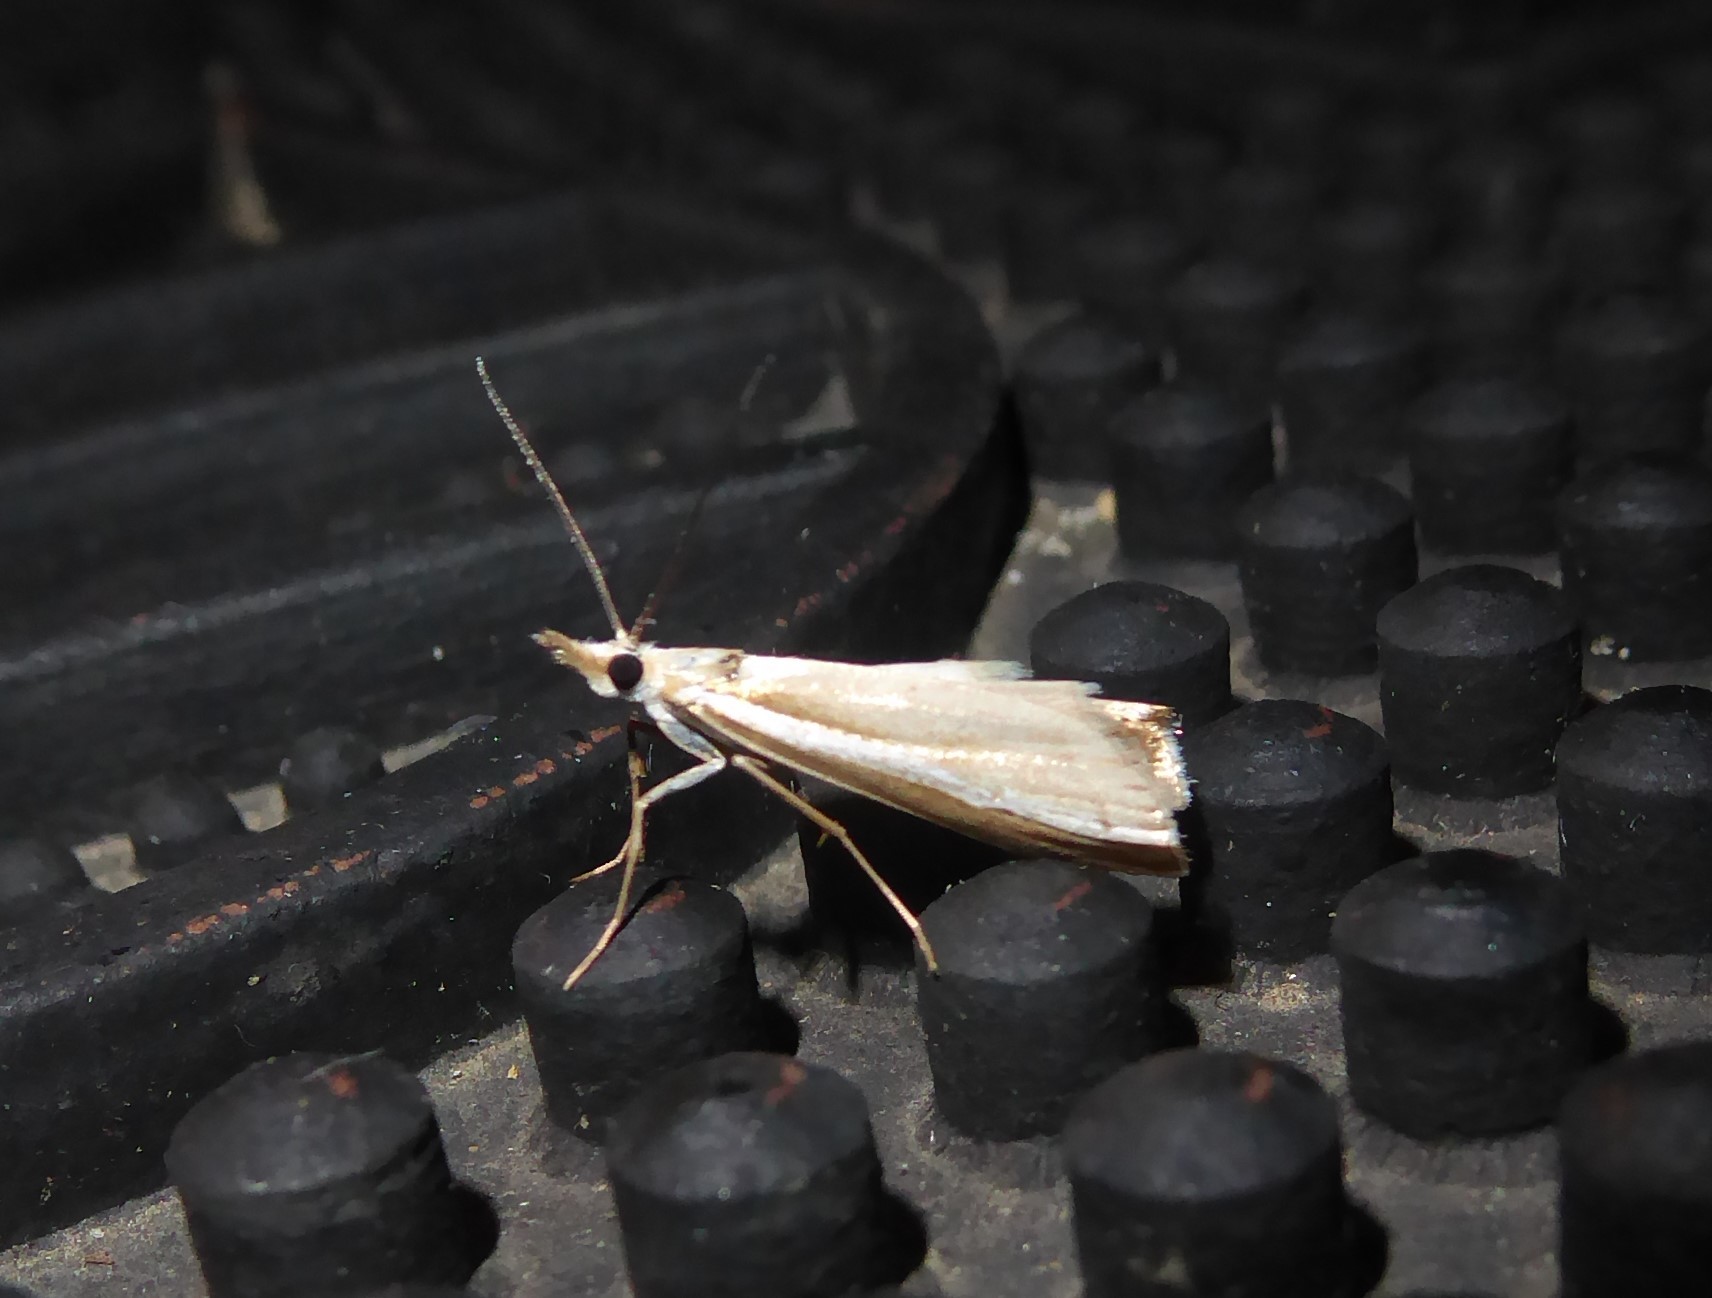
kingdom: Animalia
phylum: Arthropoda
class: Insecta
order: Lepidoptera
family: Crambidae
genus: Orocrambus
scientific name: Orocrambus vittellus
